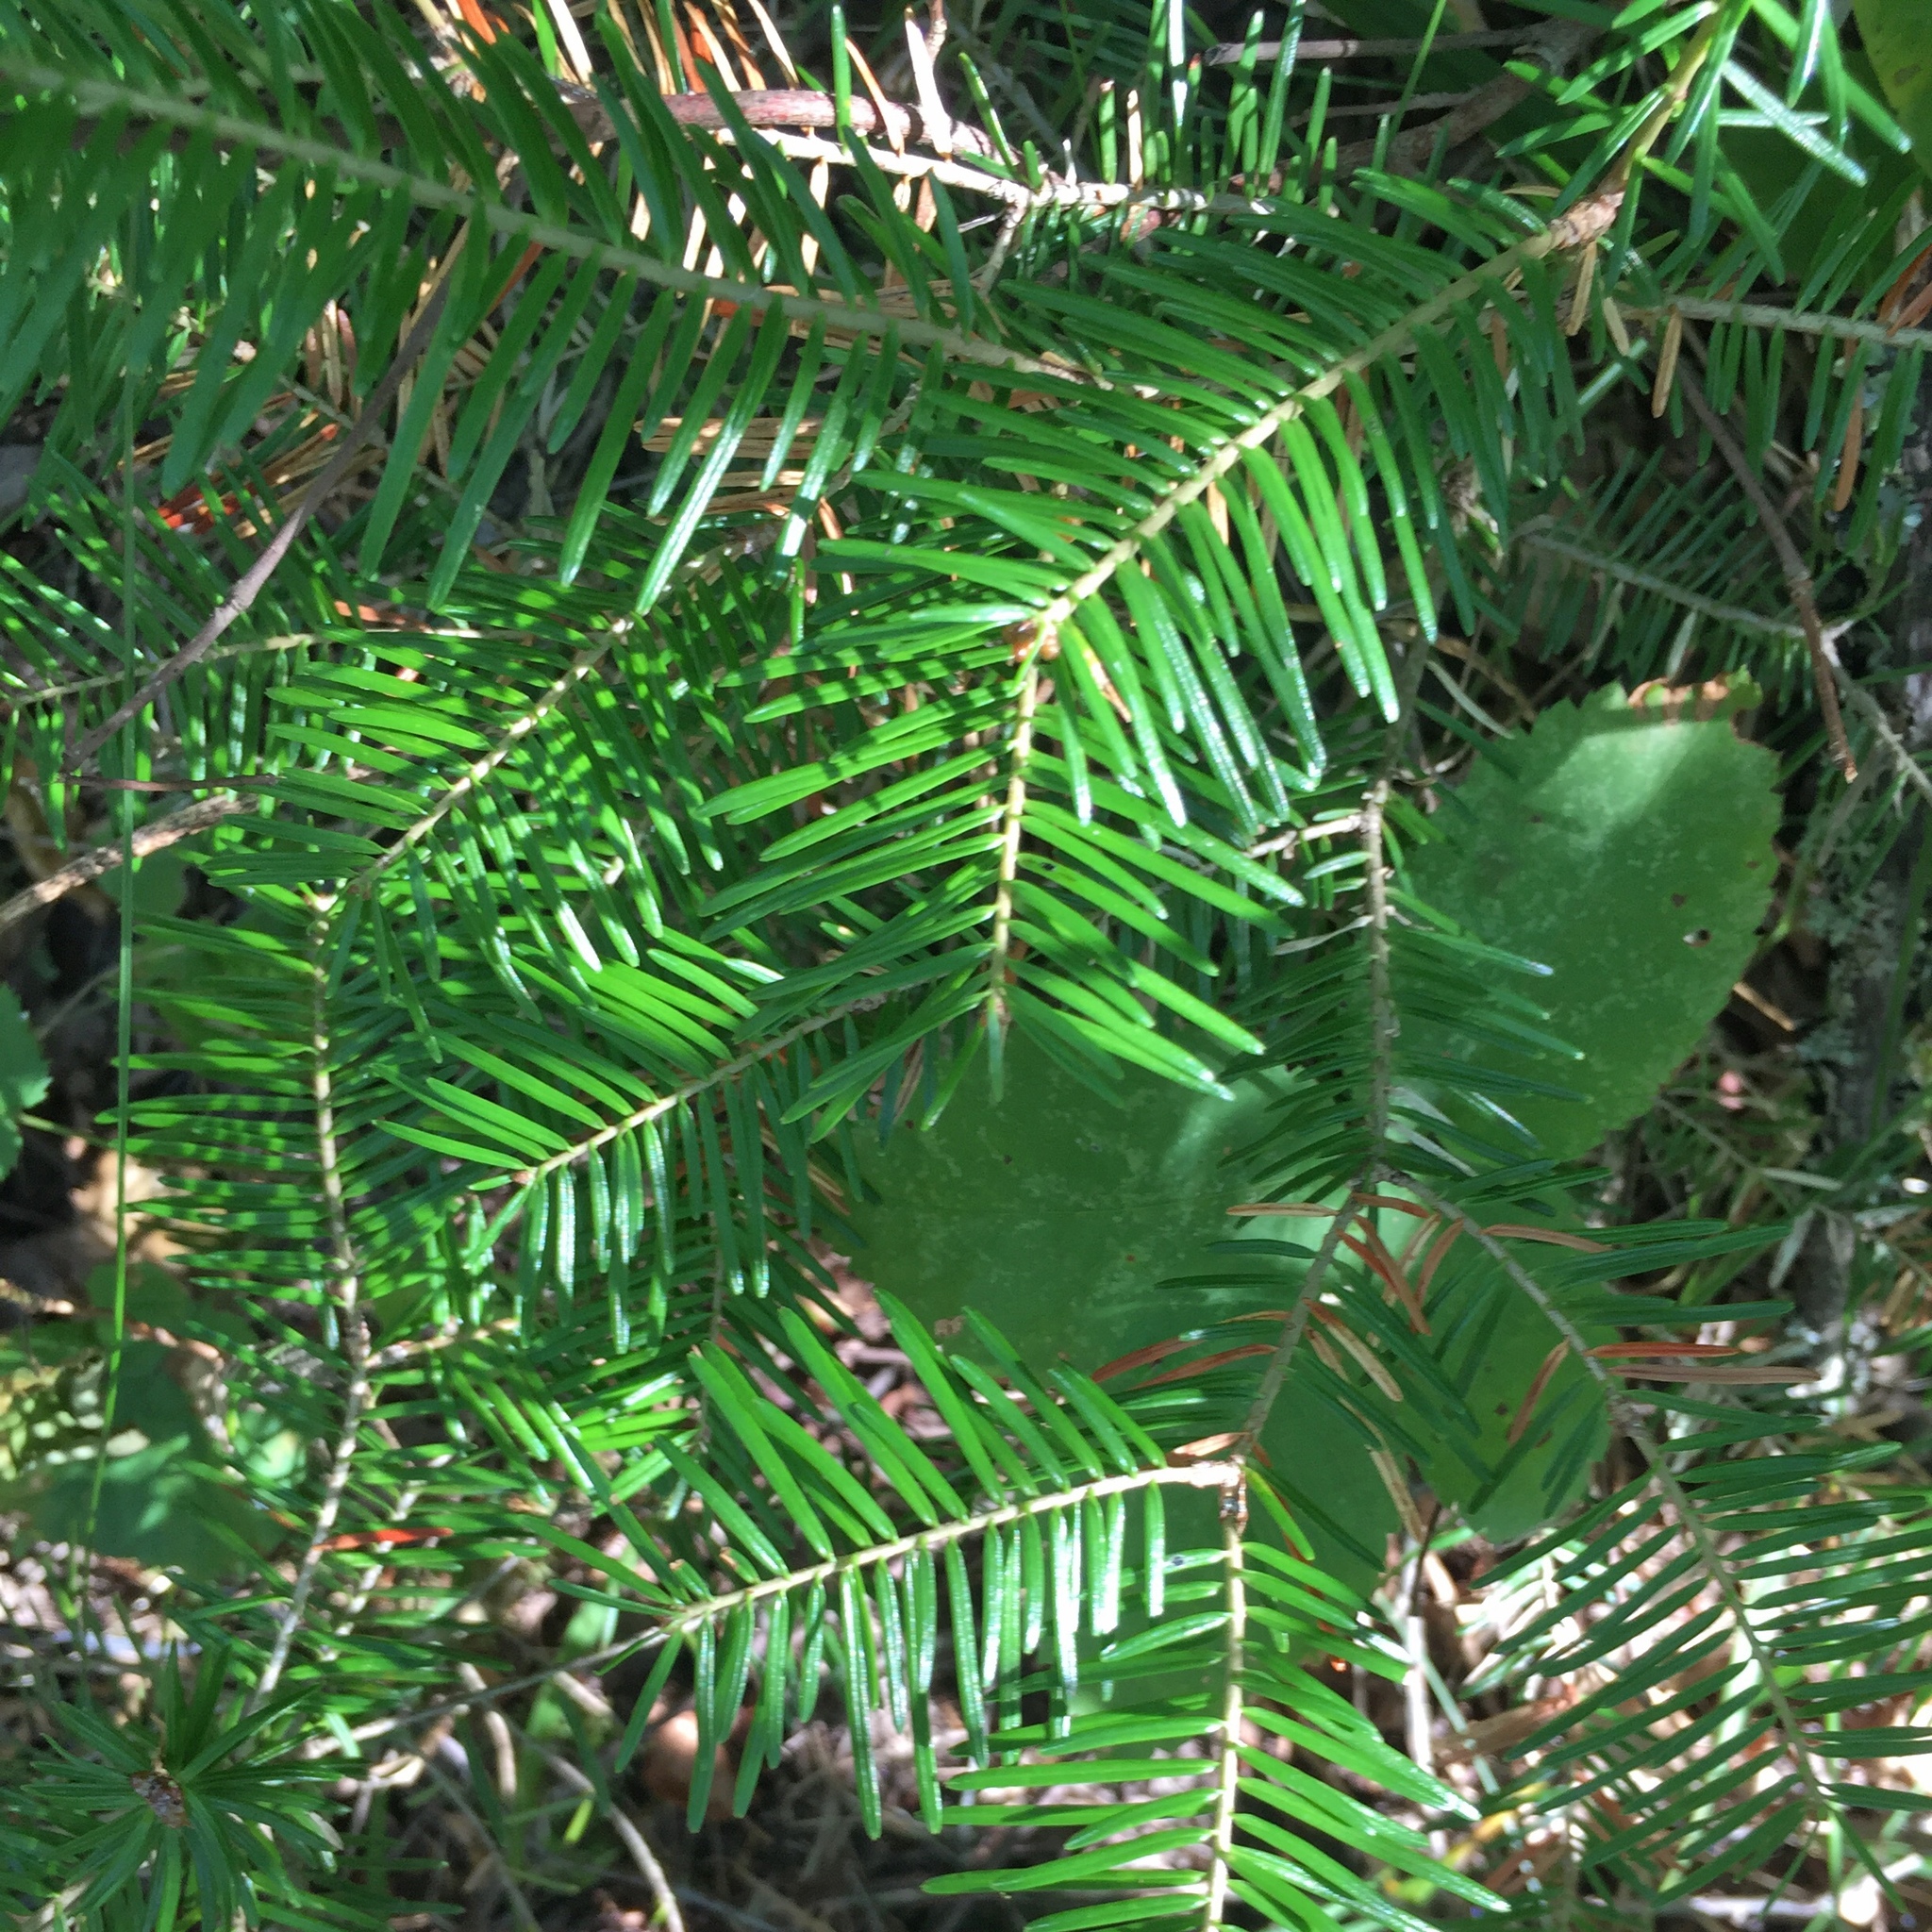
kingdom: Plantae
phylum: Tracheophyta
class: Pinopsida
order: Pinales
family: Pinaceae
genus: Abies
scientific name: Abies balsamea
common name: Balsam fir
